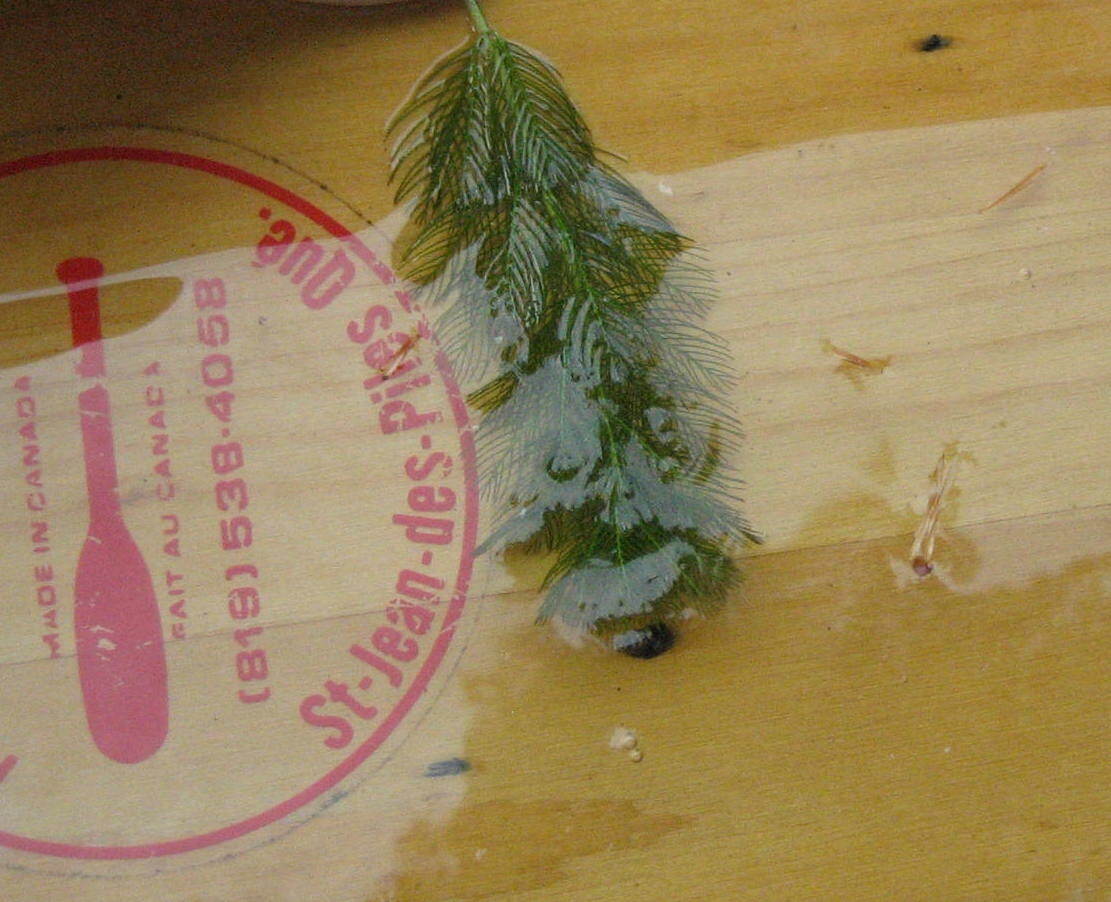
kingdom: Plantae
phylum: Tracheophyta
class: Magnoliopsida
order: Saxifragales
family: Haloragaceae
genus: Myriophyllum
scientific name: Myriophyllum spicatum
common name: Spiked water-milfoil
